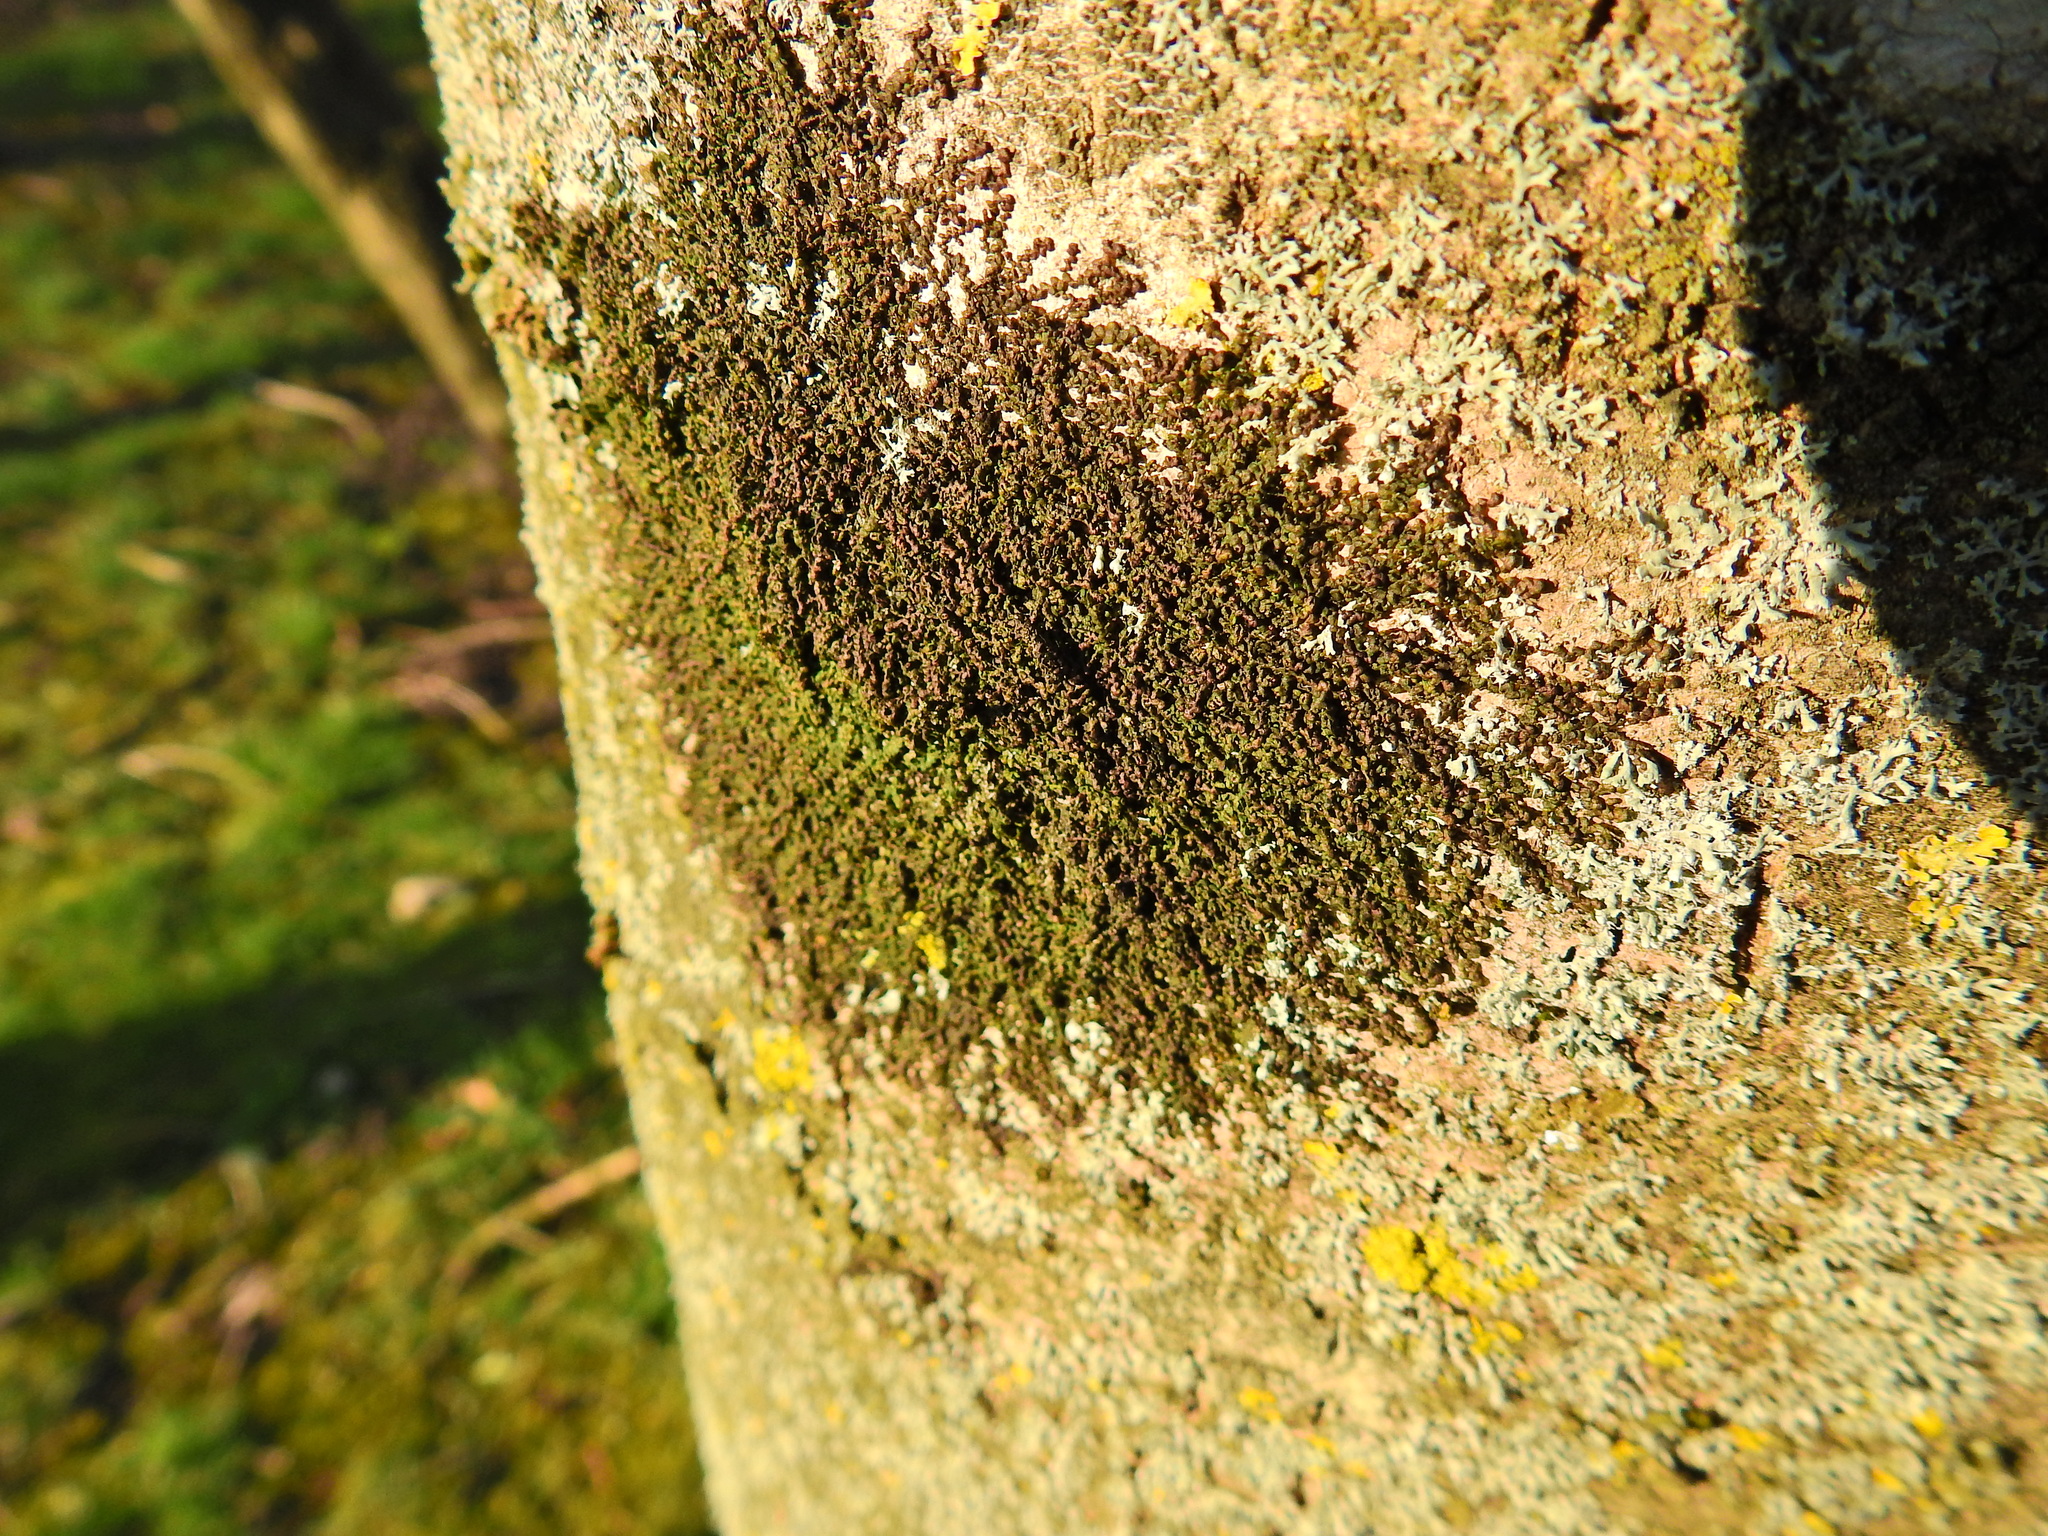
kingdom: Plantae
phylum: Marchantiophyta
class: Jungermanniopsida
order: Porellales
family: Frullaniaceae
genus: Frullania
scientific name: Frullania dilatata
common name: Dilated scalewort
